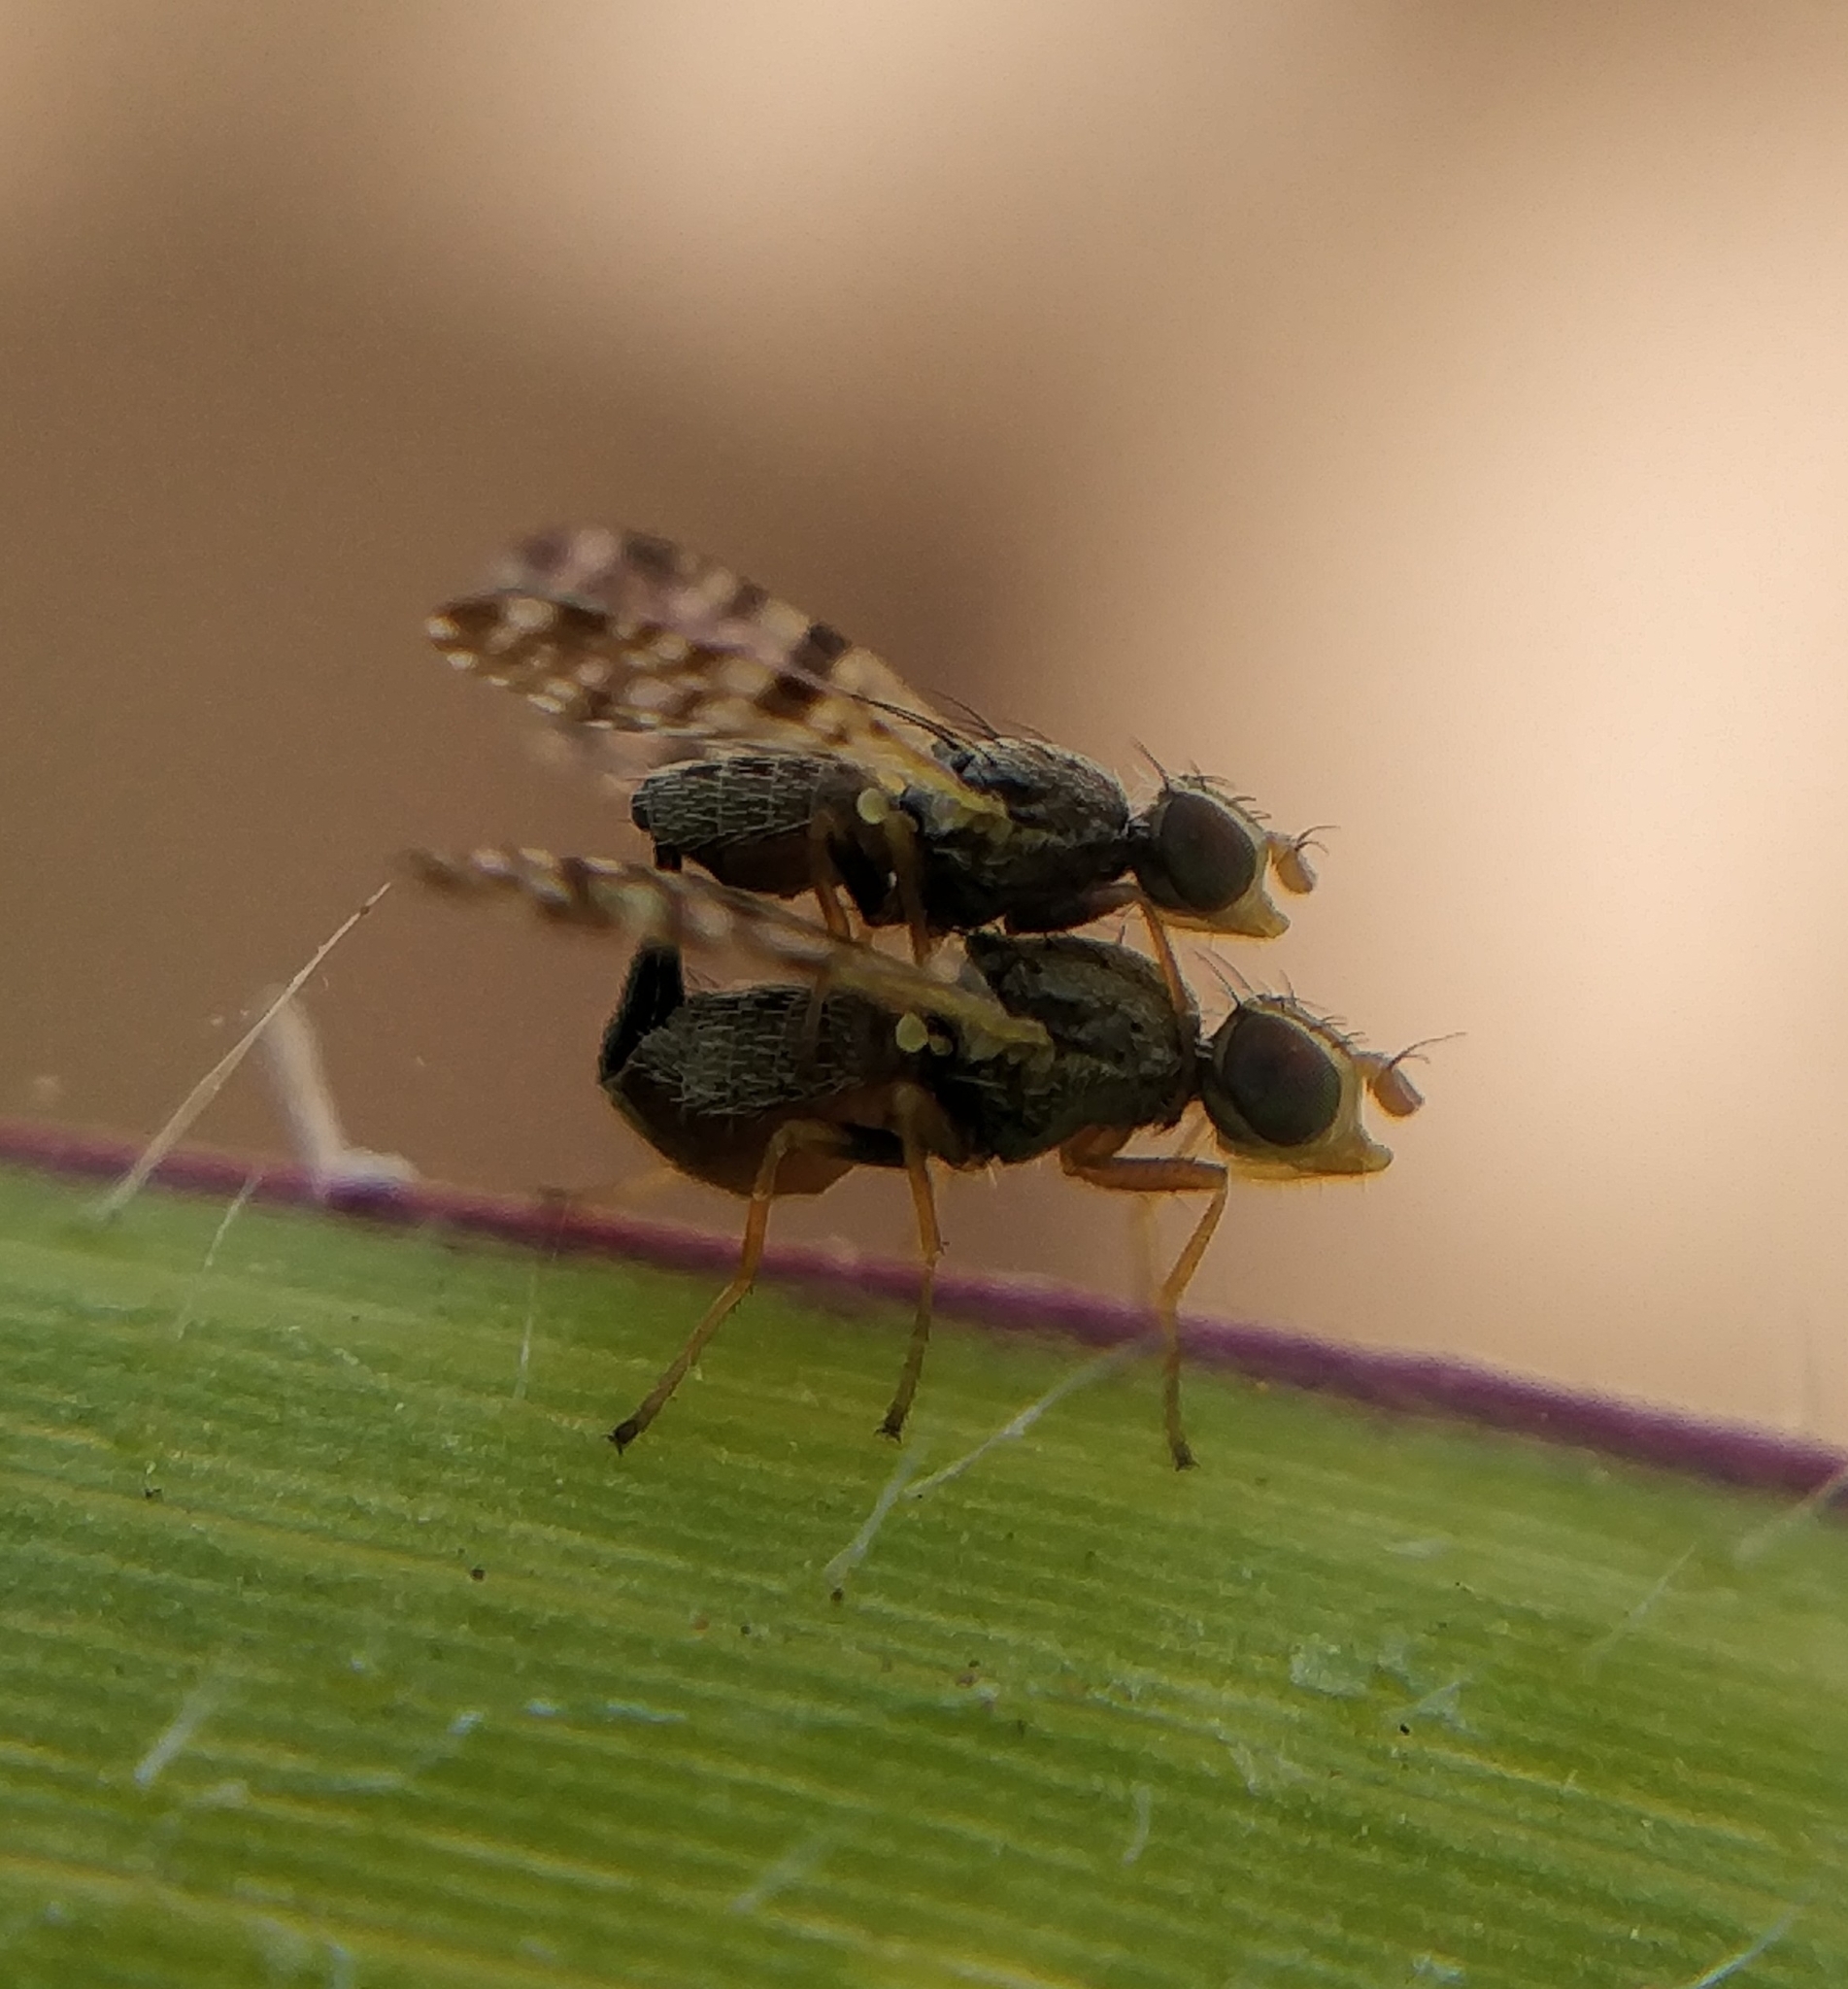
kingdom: Animalia
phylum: Arthropoda
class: Insecta
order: Diptera
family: Tephritidae
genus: Dioxyna
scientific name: Dioxyna sororcula
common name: Fruit fly
